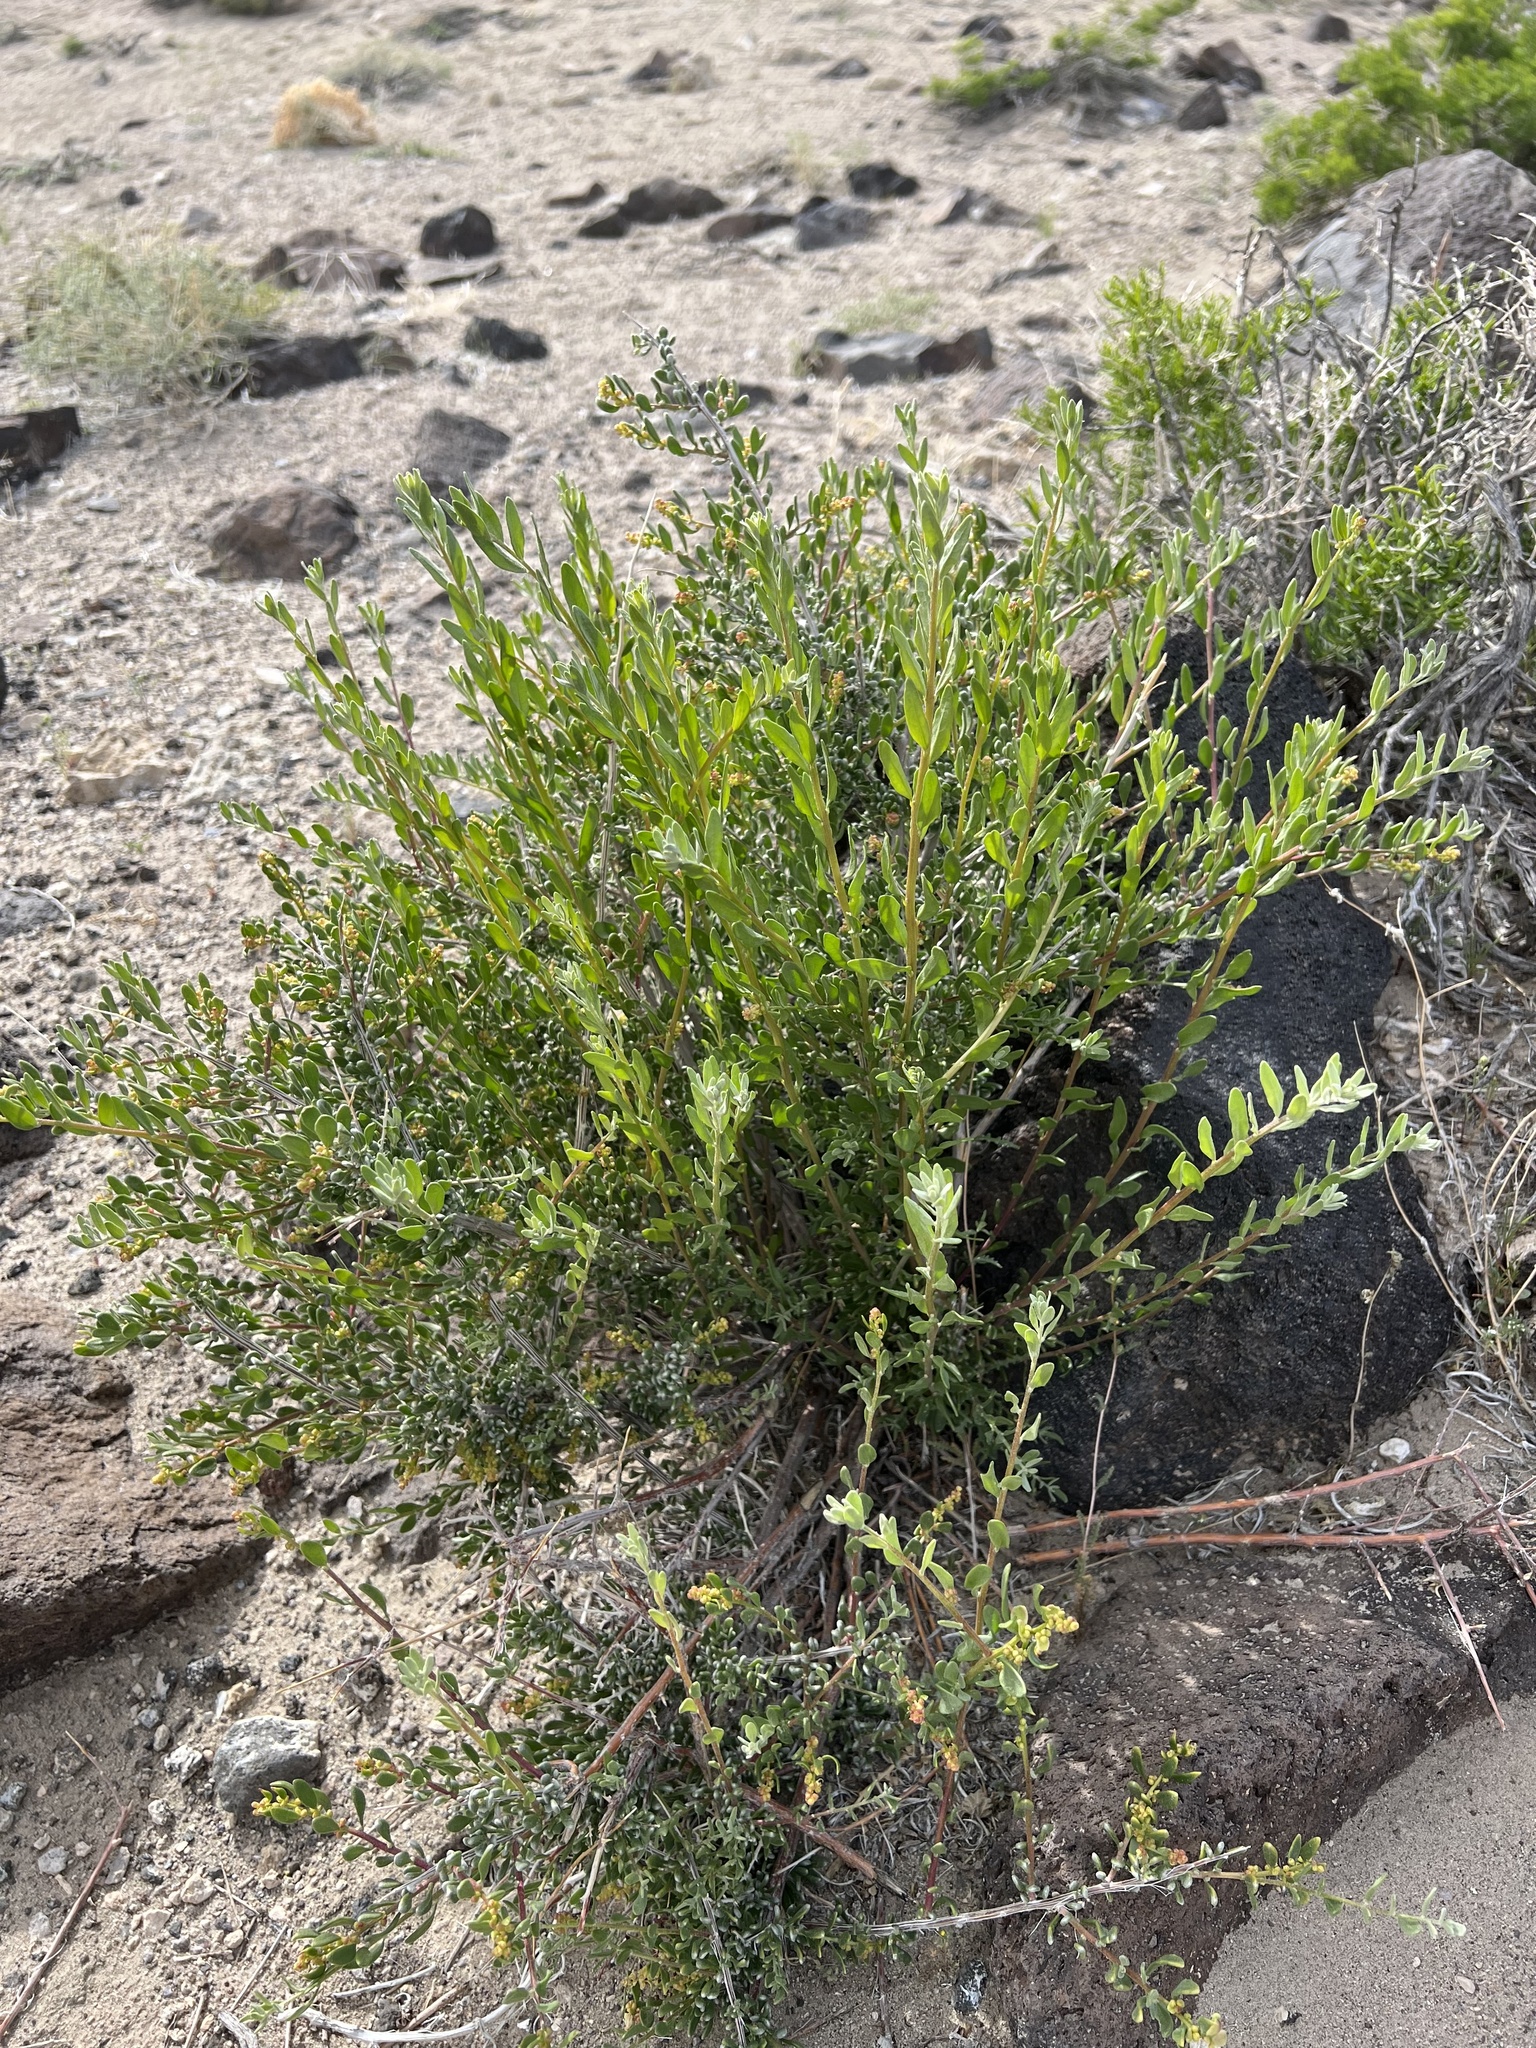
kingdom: Plantae
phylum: Tracheophyta
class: Magnoliopsida
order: Caryophyllales
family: Amaranthaceae
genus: Grayia
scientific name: Grayia spinosa
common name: Spiny hopsage
